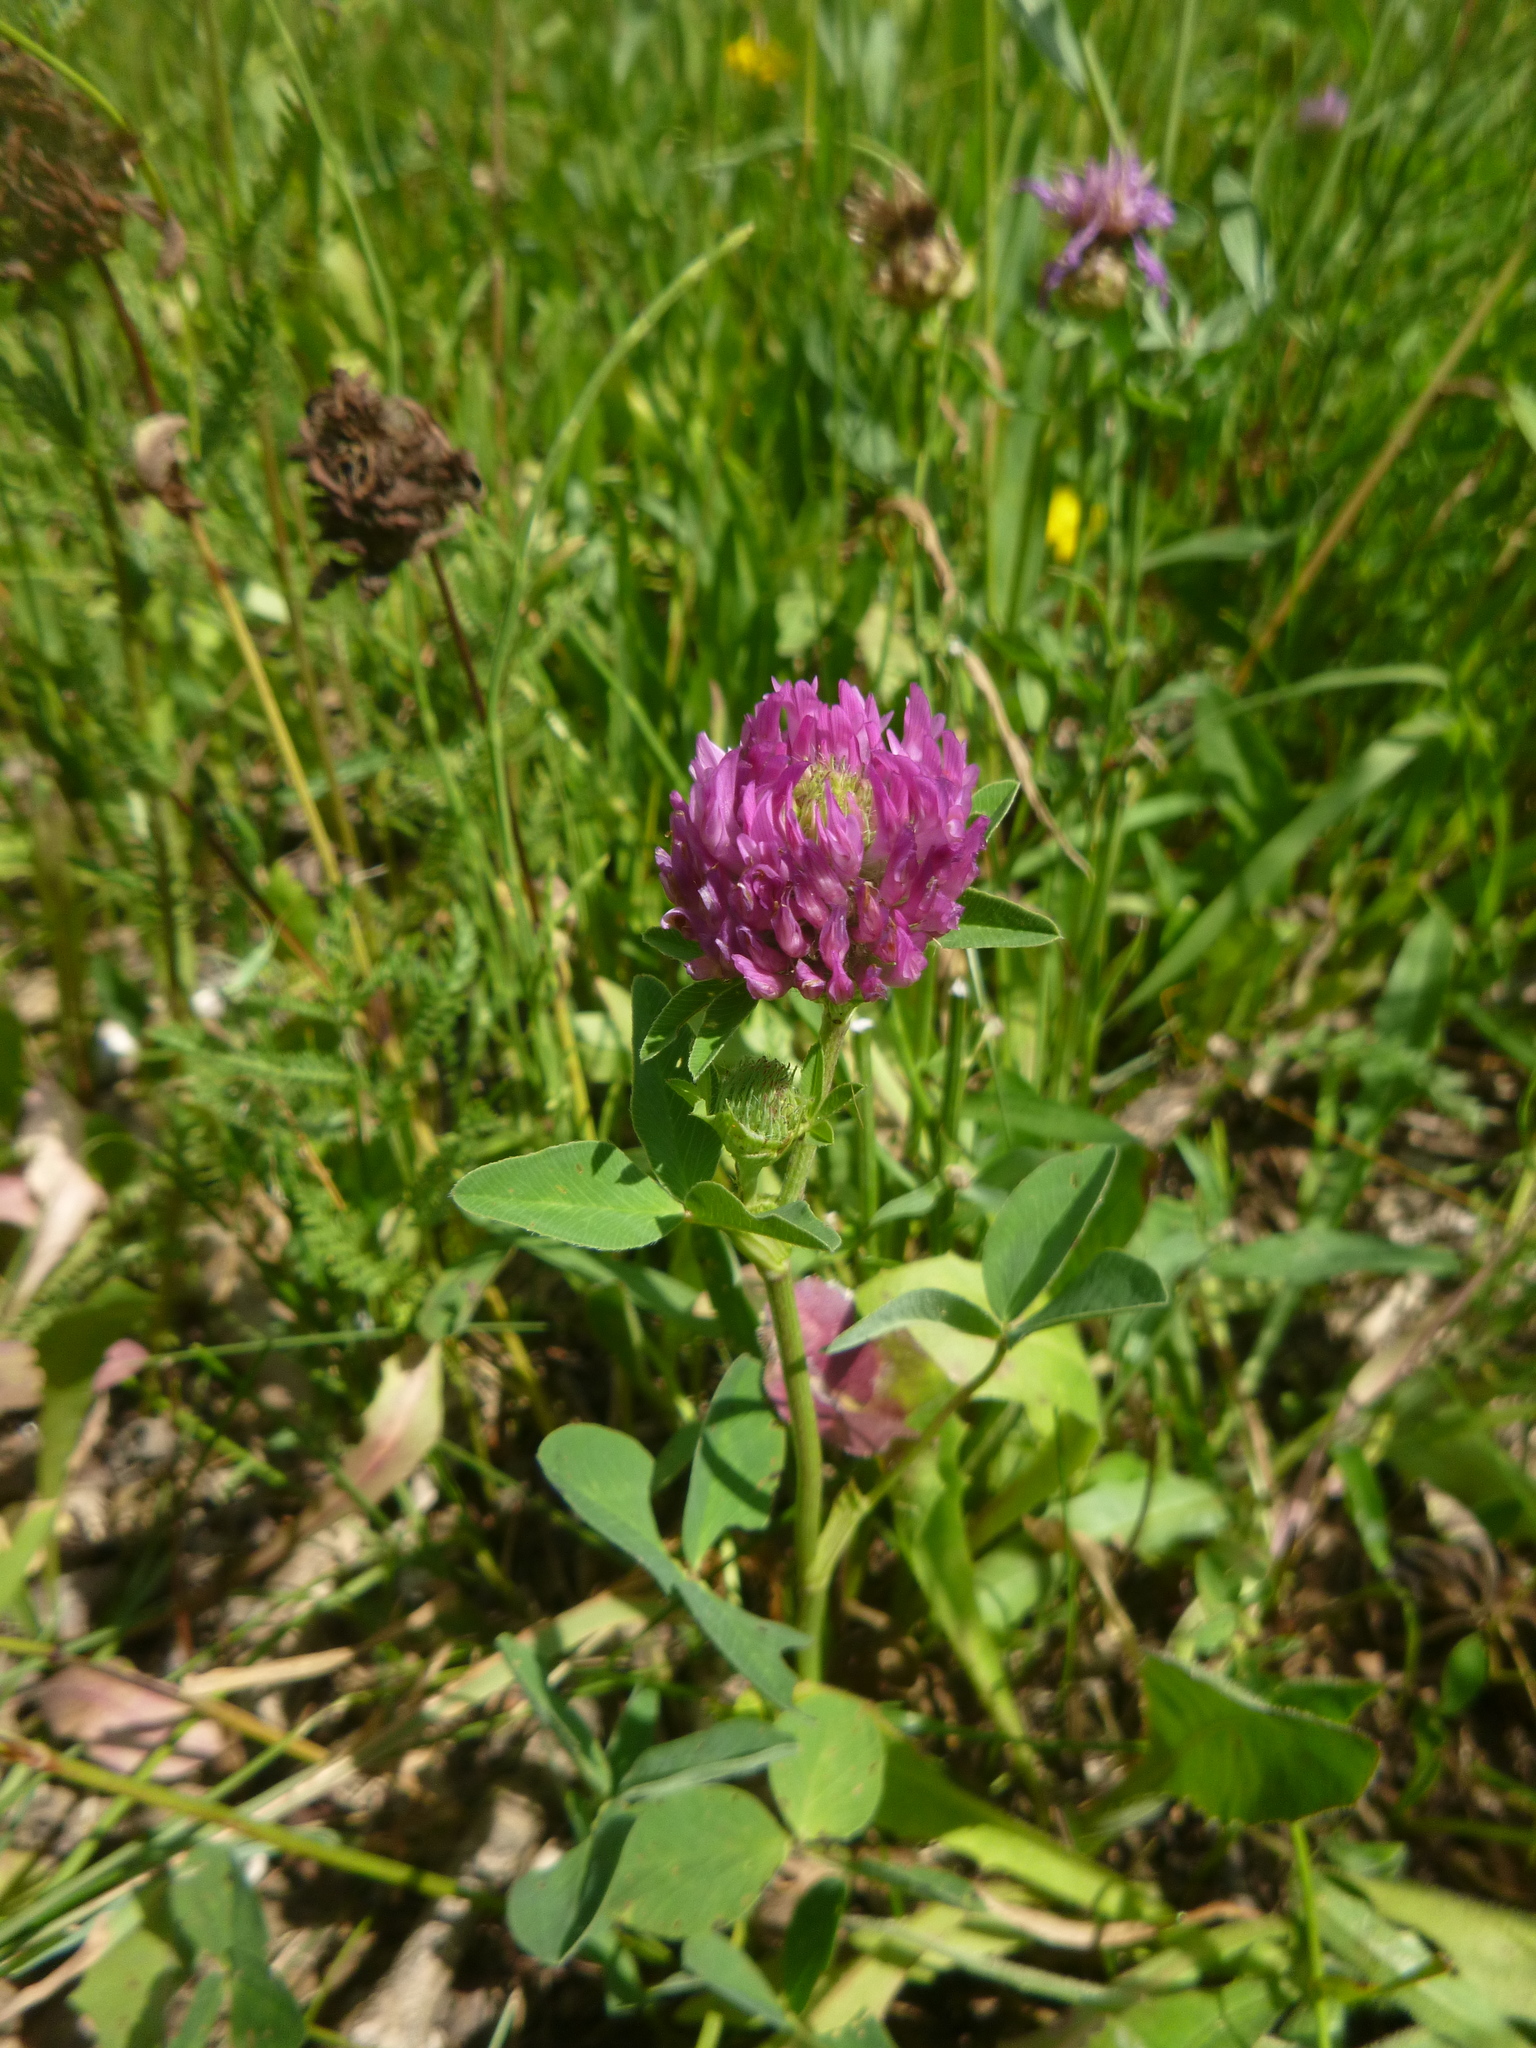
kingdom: Plantae
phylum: Tracheophyta
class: Magnoliopsida
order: Fabales
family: Fabaceae
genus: Trifolium
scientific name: Trifolium pratense
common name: Red clover
